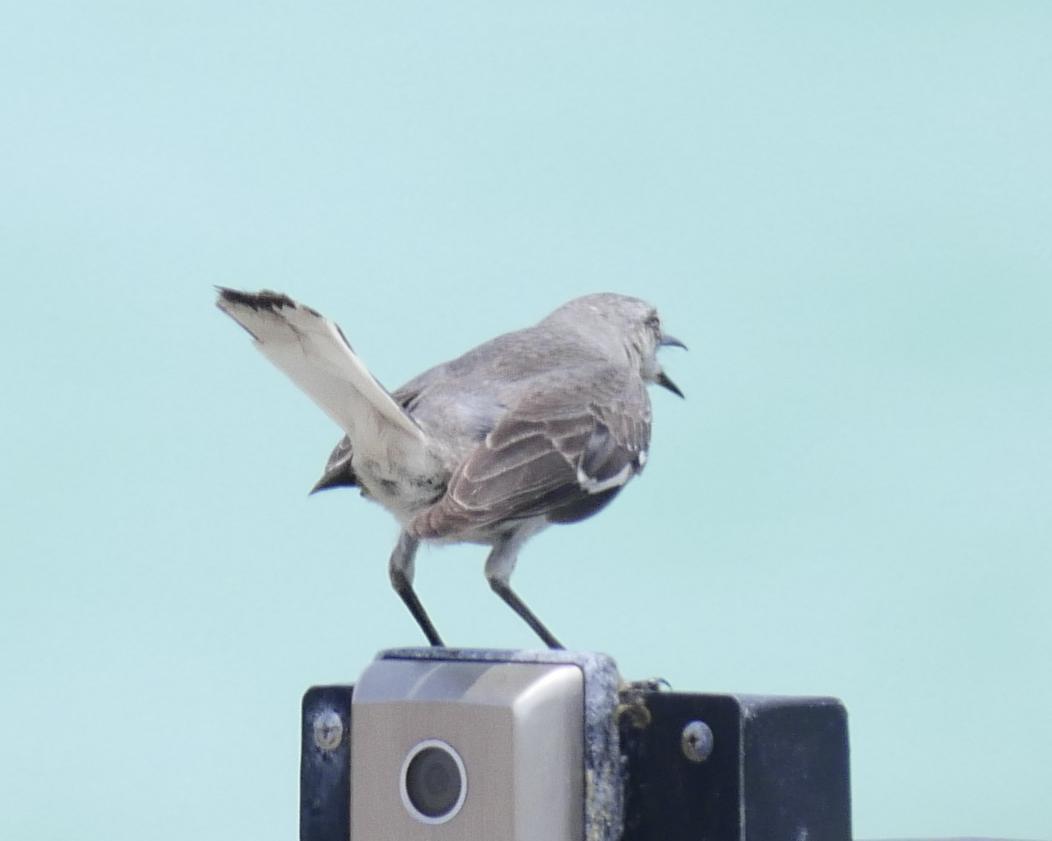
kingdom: Animalia
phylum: Chordata
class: Aves
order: Passeriformes
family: Mimidae
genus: Mimus
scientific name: Mimus polyglottos
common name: Northern mockingbird
